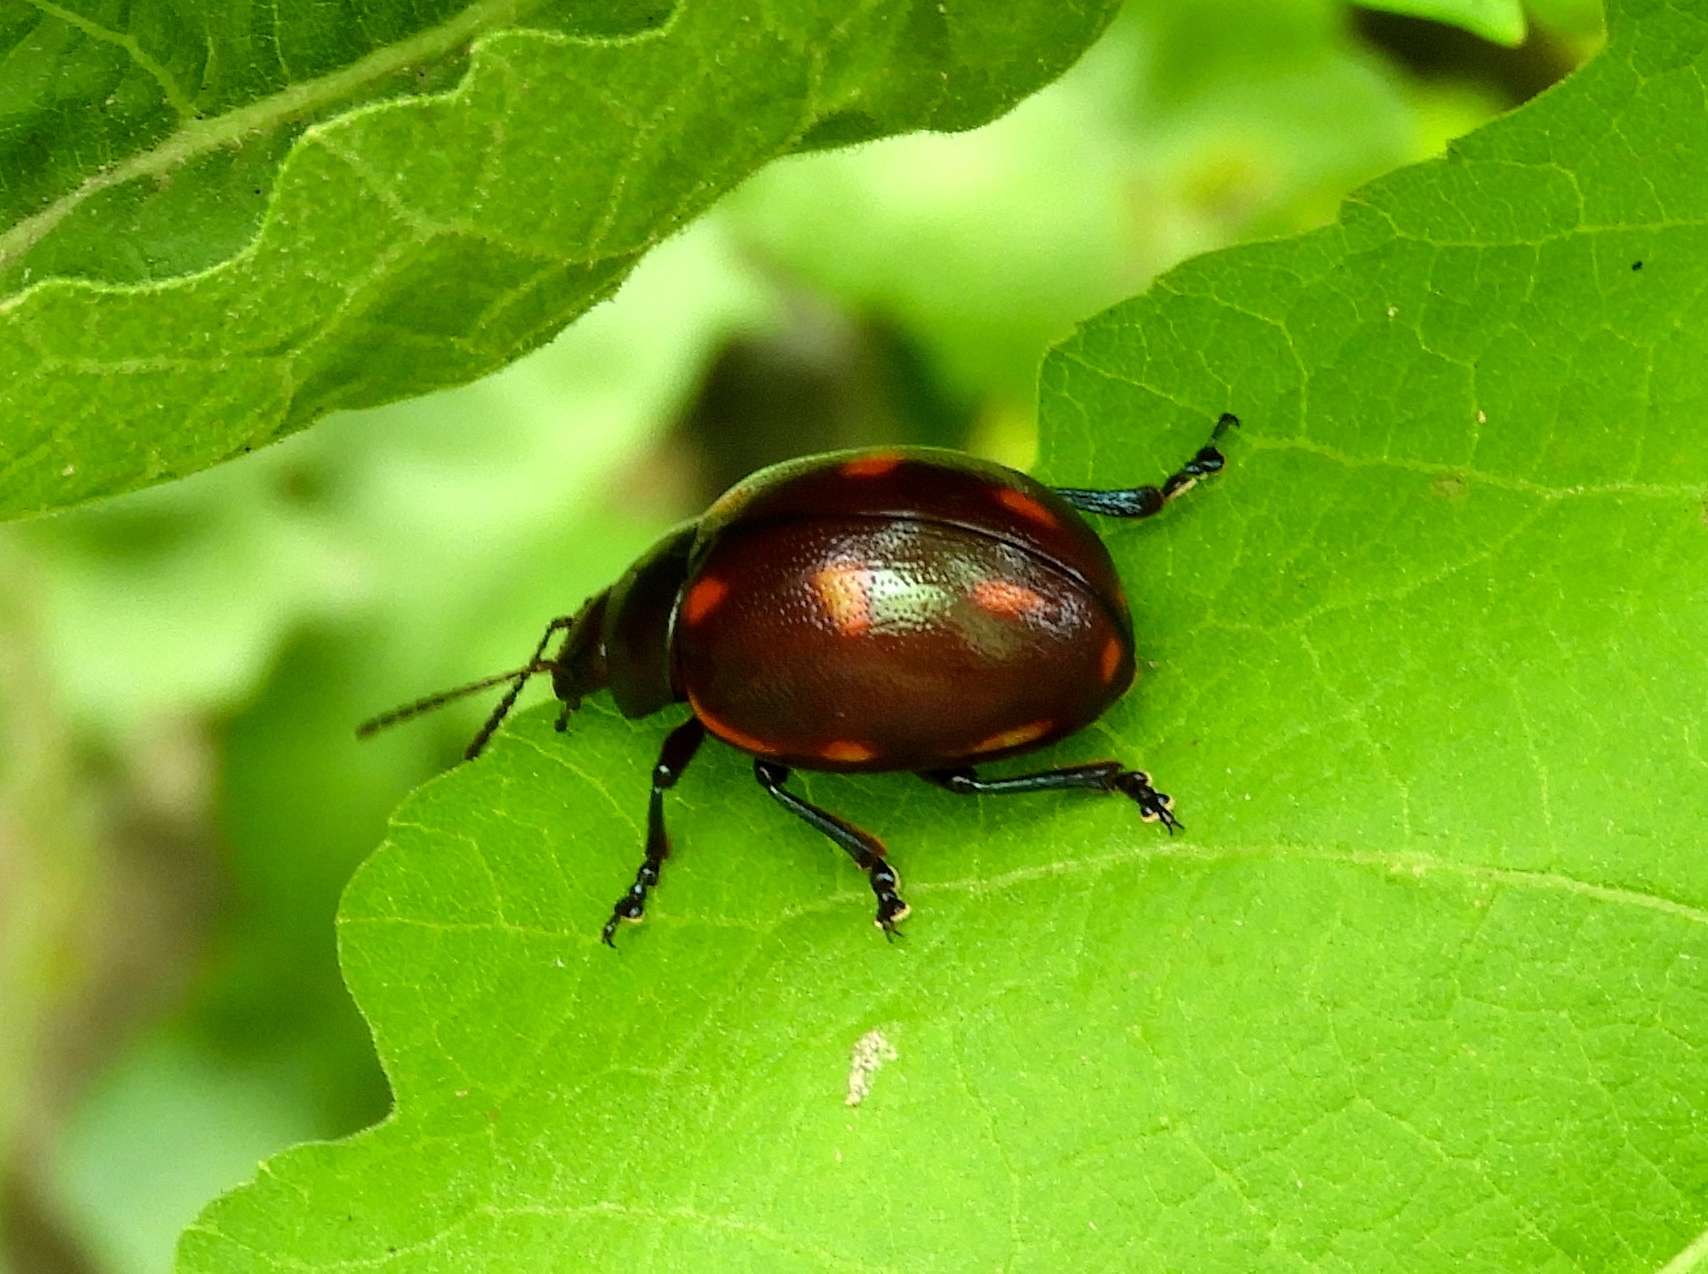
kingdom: Animalia
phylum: Arthropoda
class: Insecta
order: Coleoptera
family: Chrysomelidae
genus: Leptinotarsa
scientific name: Leptinotarsa behrensi
